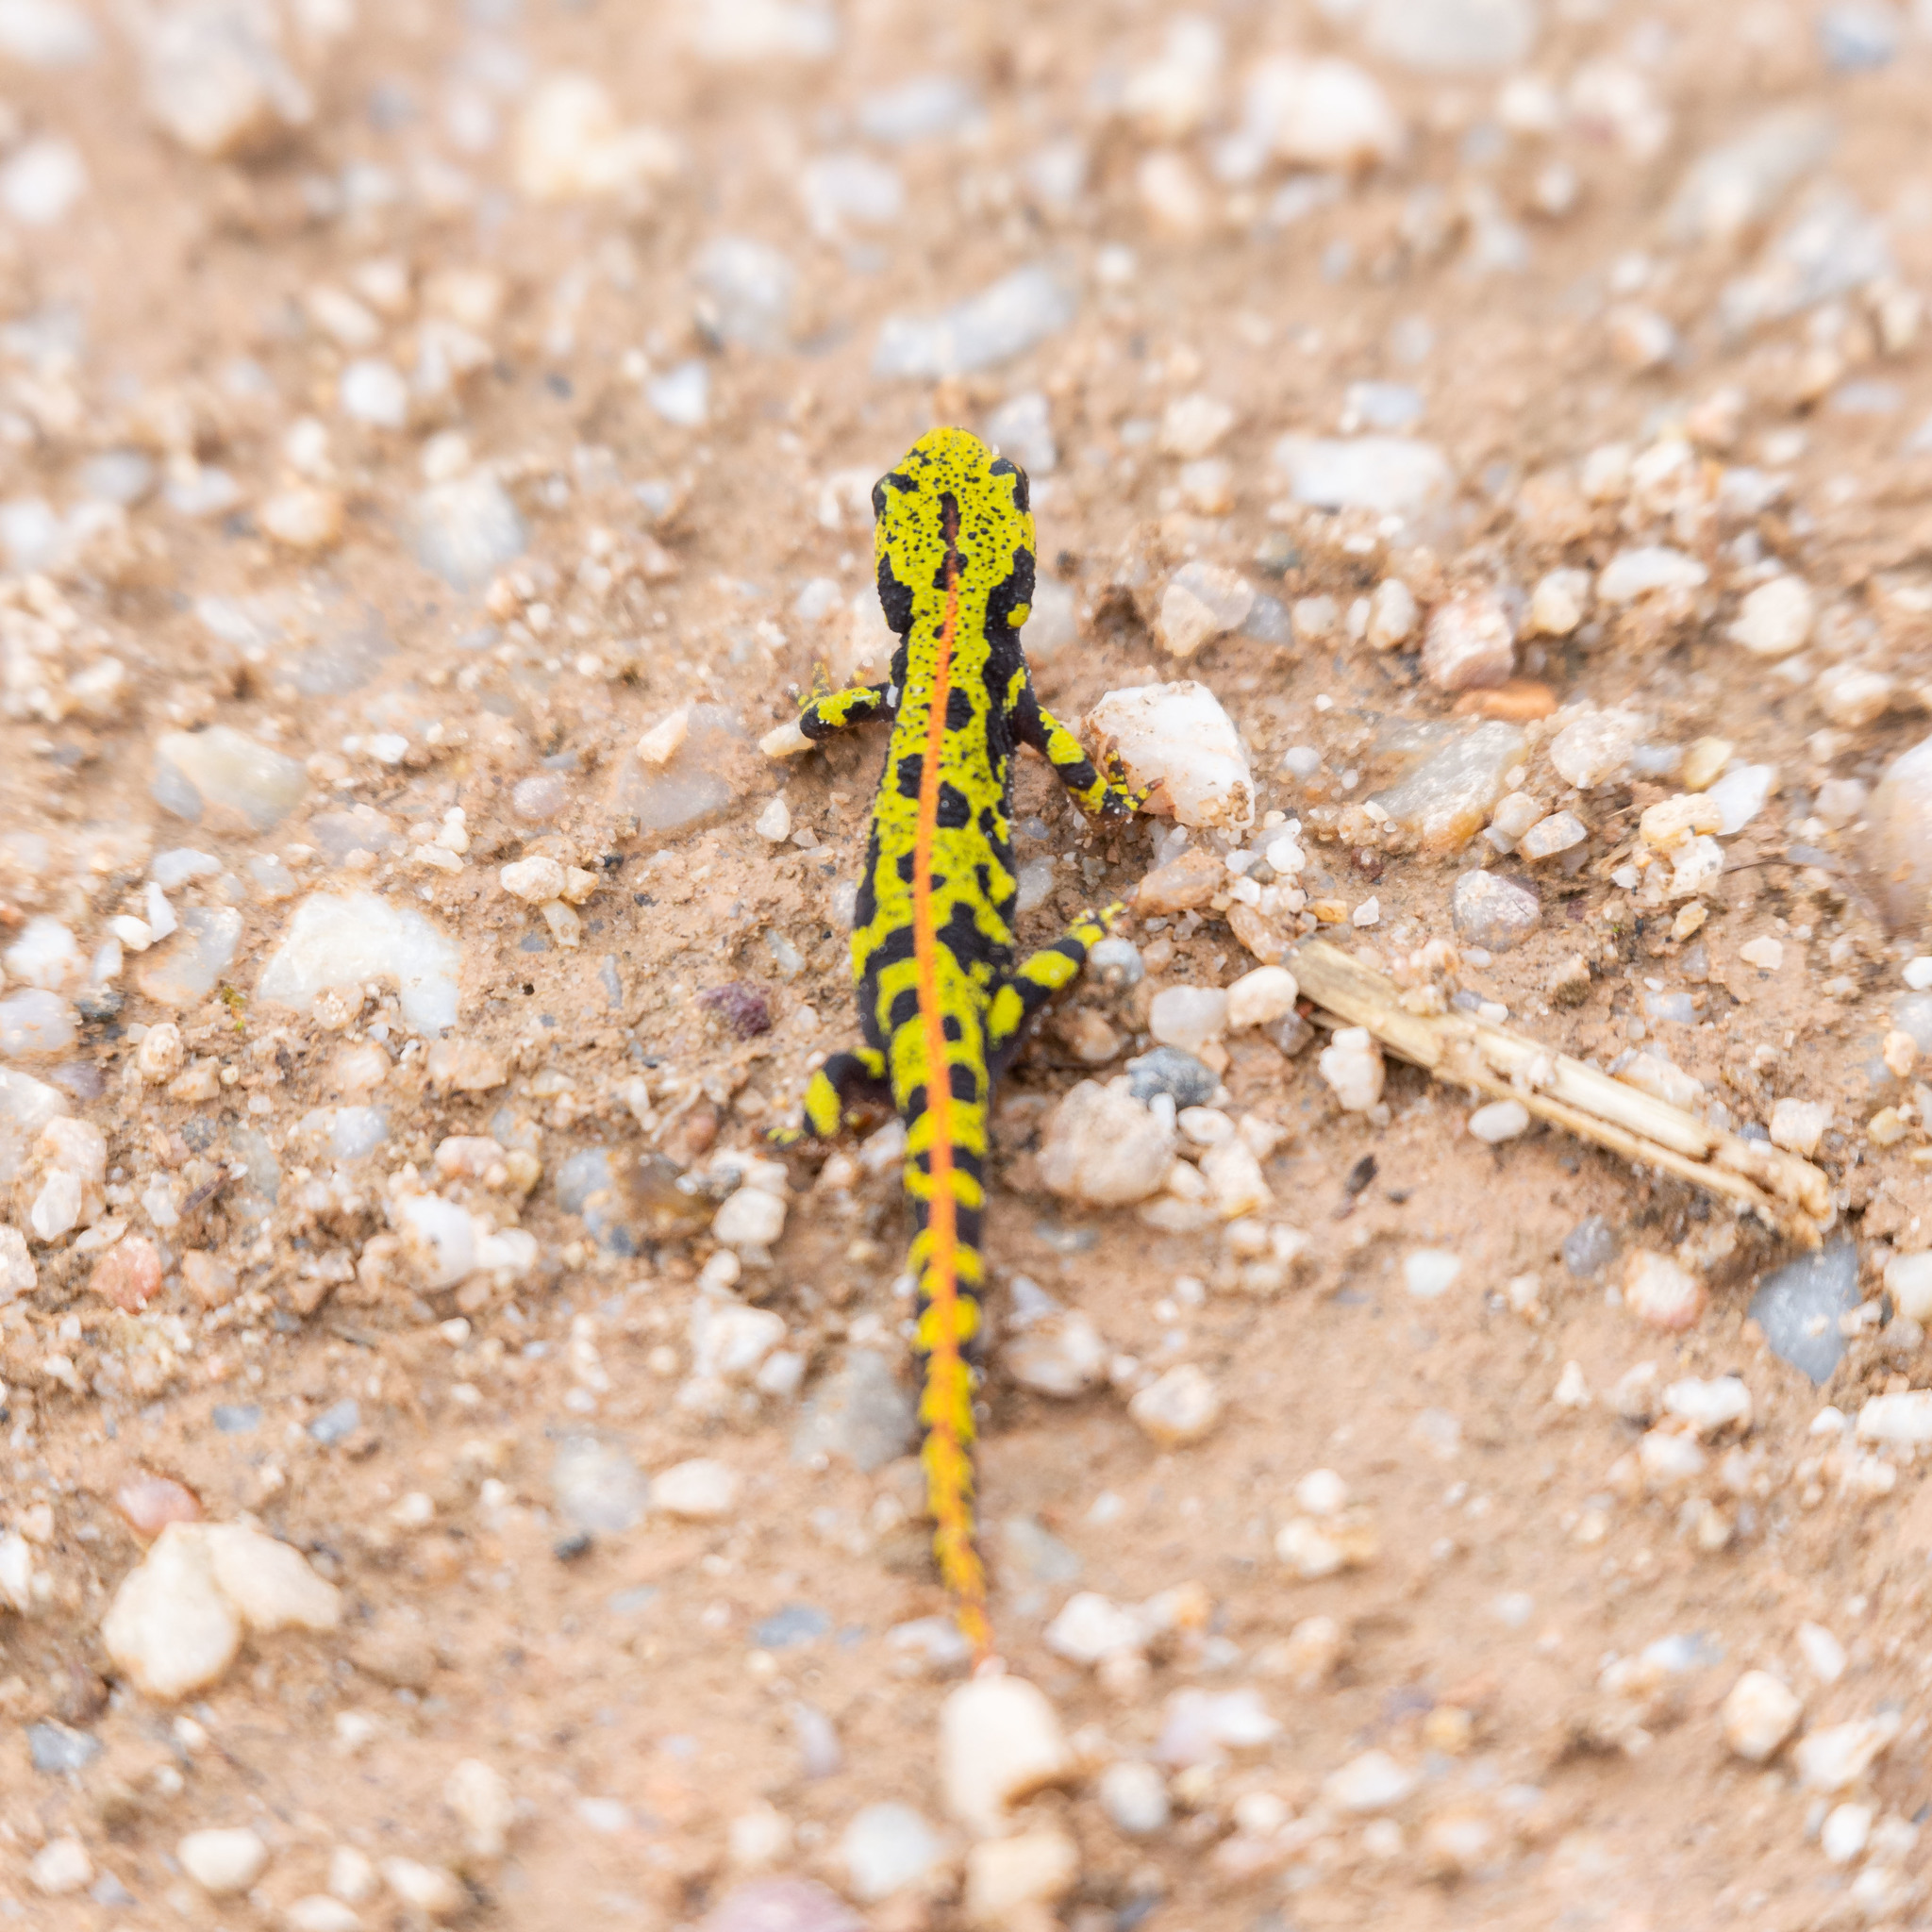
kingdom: Animalia
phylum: Chordata
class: Amphibia
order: Caudata
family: Salamandridae
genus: Triturus
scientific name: Triturus marmoratus
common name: Marbled newt
